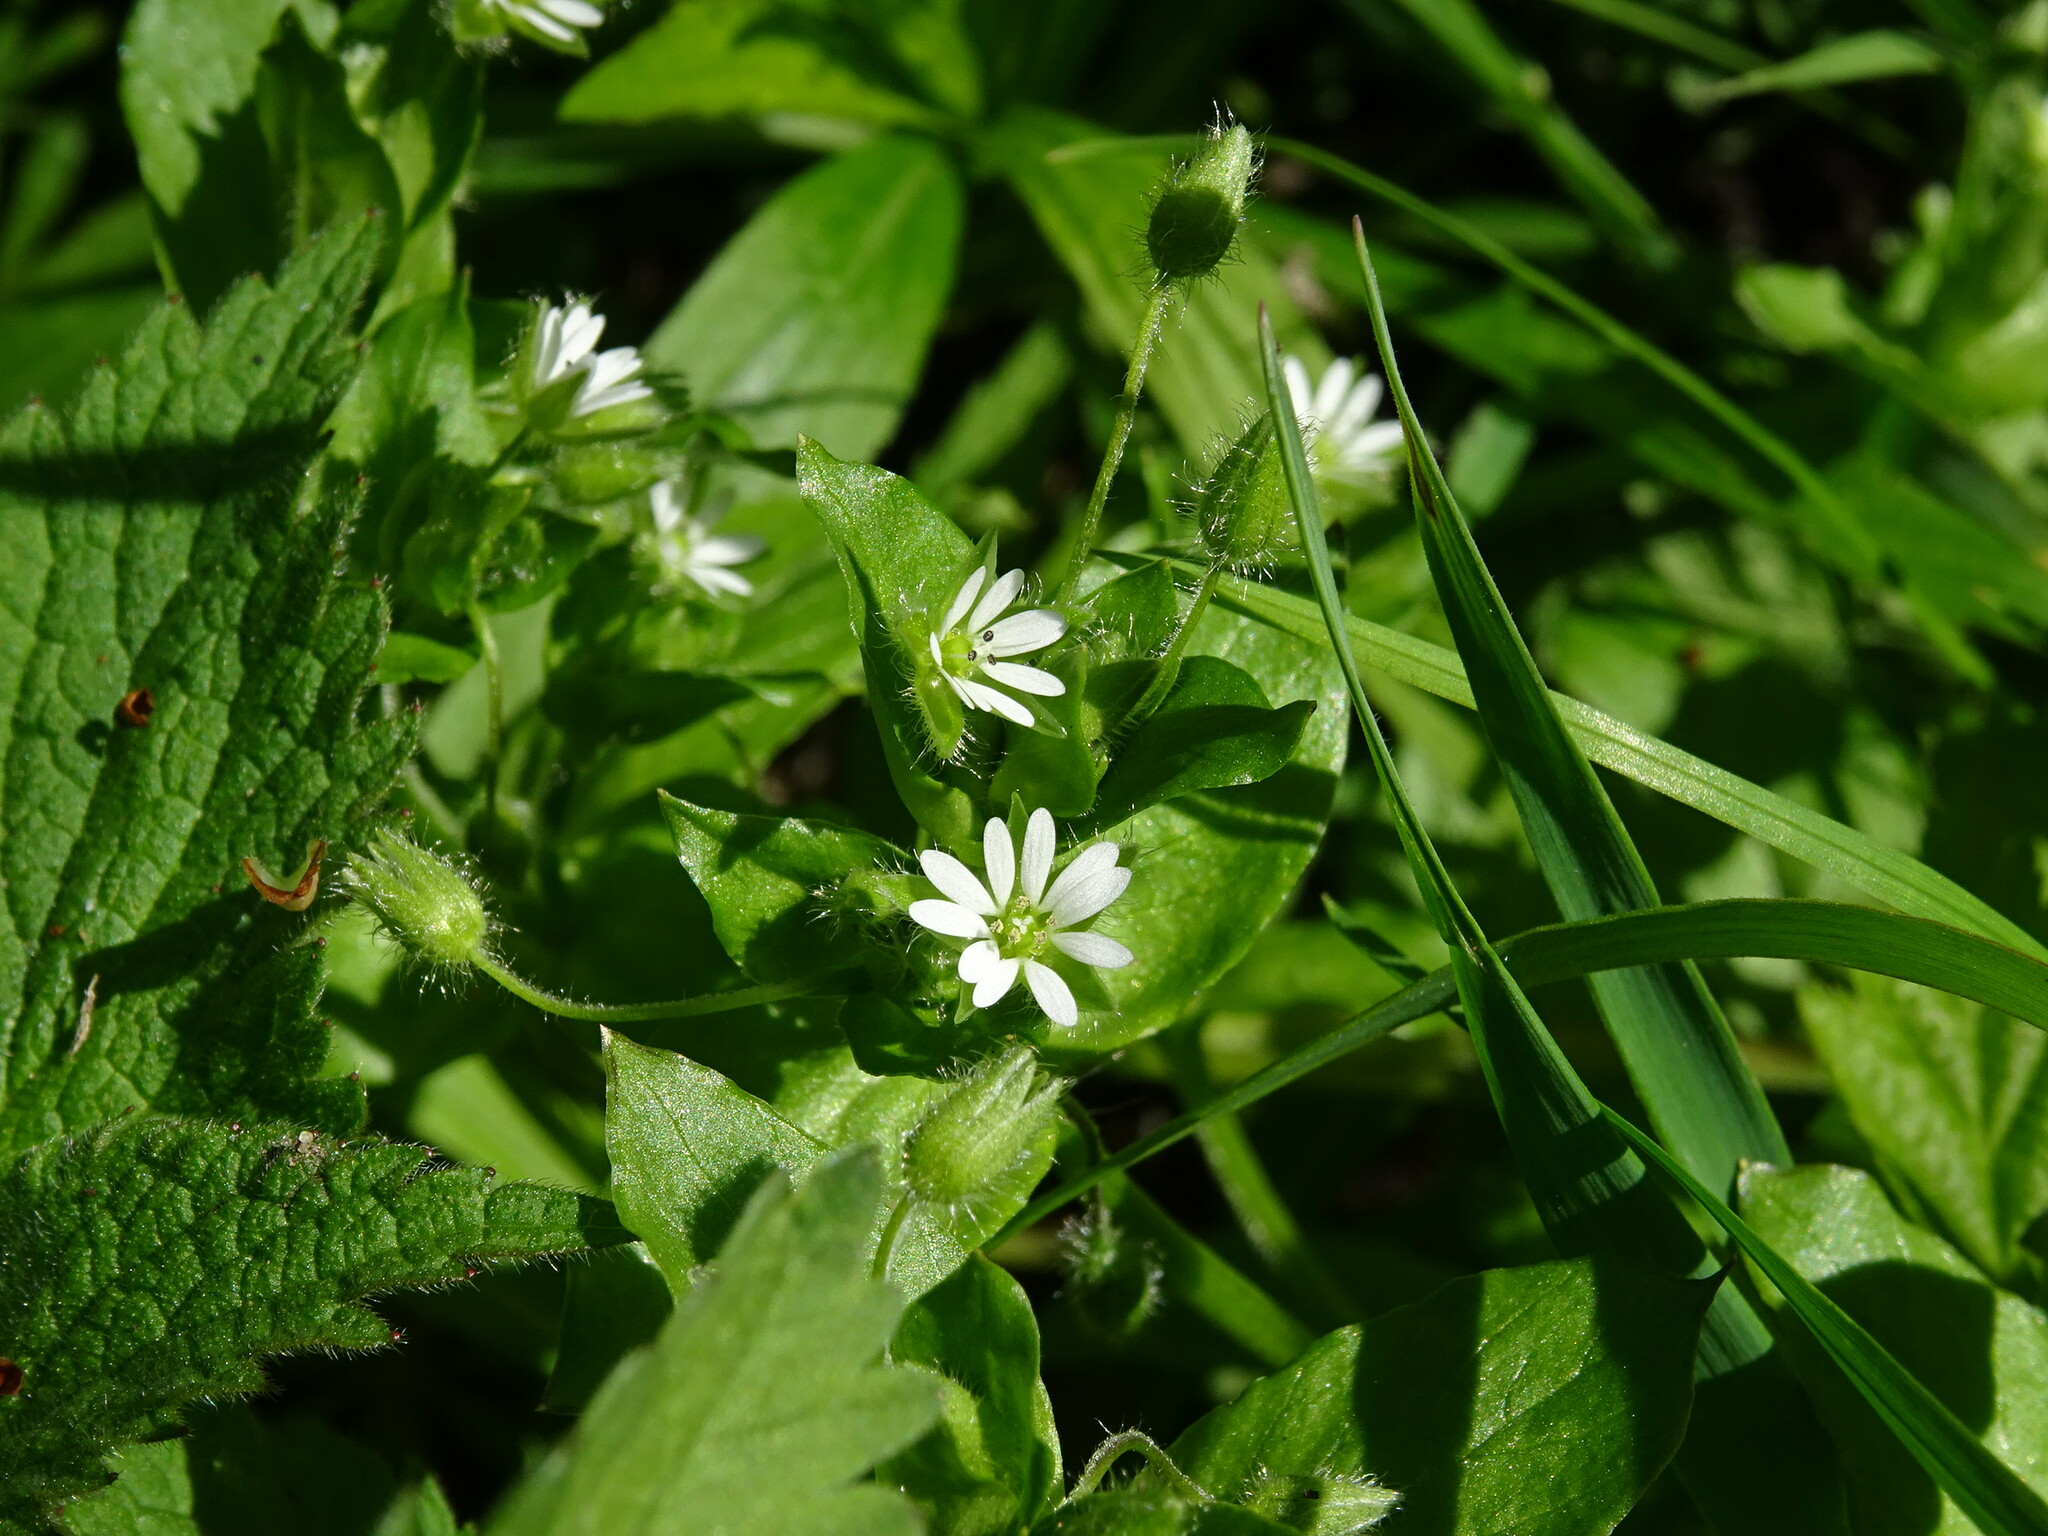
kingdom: Plantae
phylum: Tracheophyta
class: Magnoliopsida
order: Caryophyllales
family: Caryophyllaceae
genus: Stellaria
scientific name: Stellaria media
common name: Common chickweed
